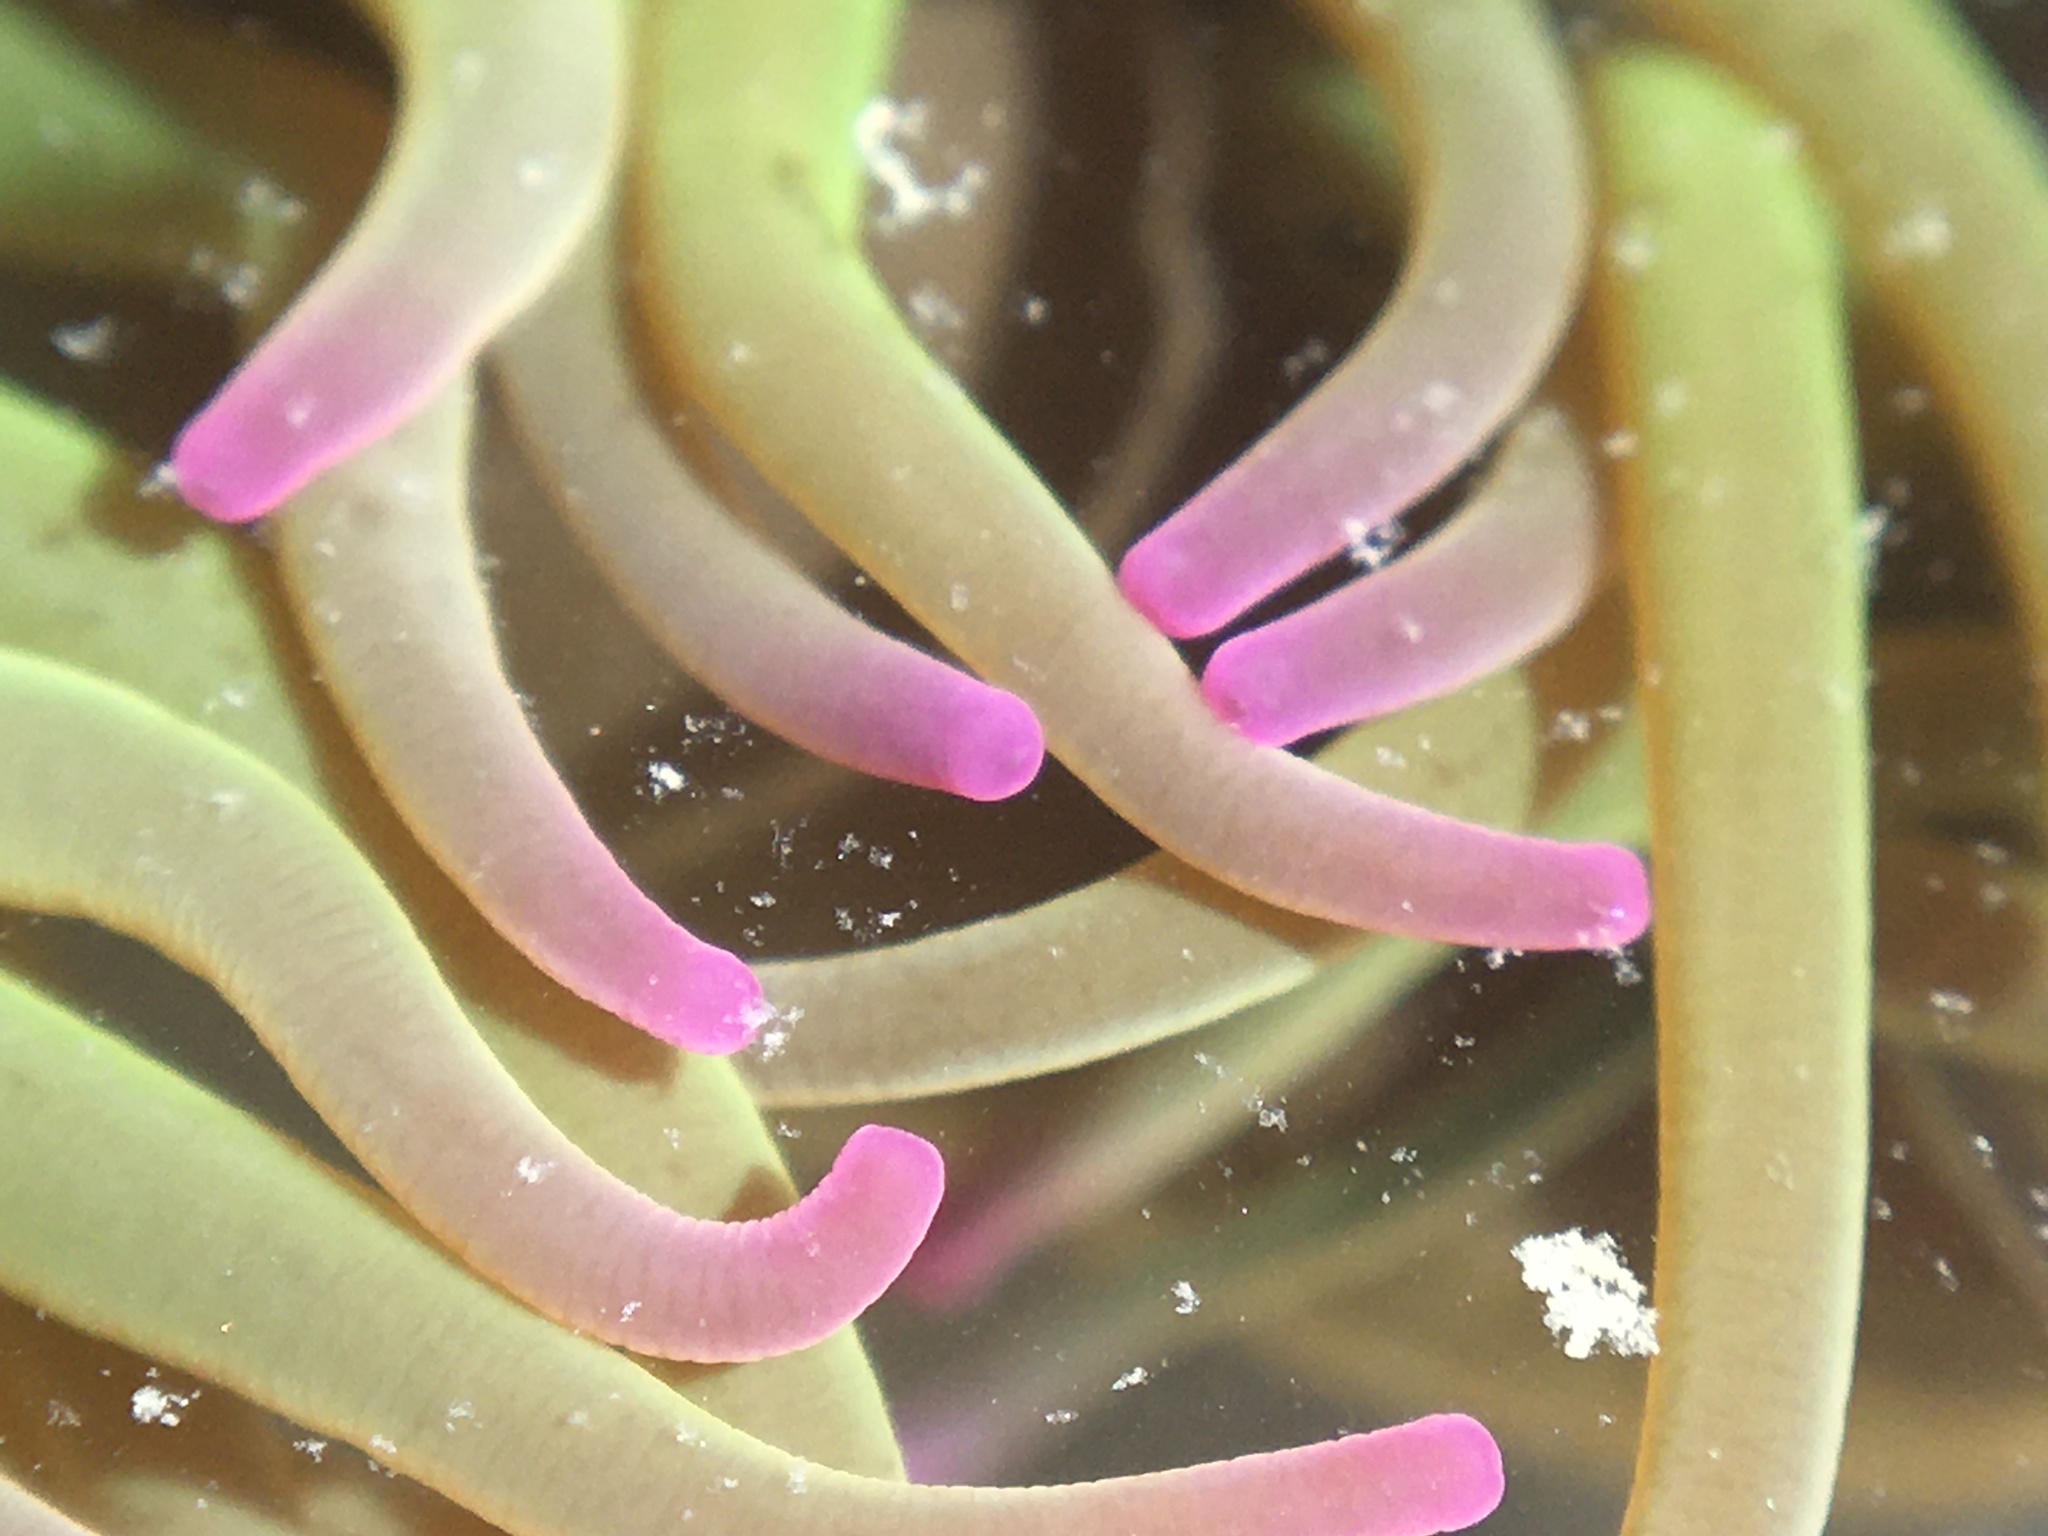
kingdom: Animalia
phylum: Cnidaria
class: Anthozoa
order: Actiniaria
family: Actiniidae
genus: Anemonia
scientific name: Anemonia viridis
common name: Snakelocks anemone
